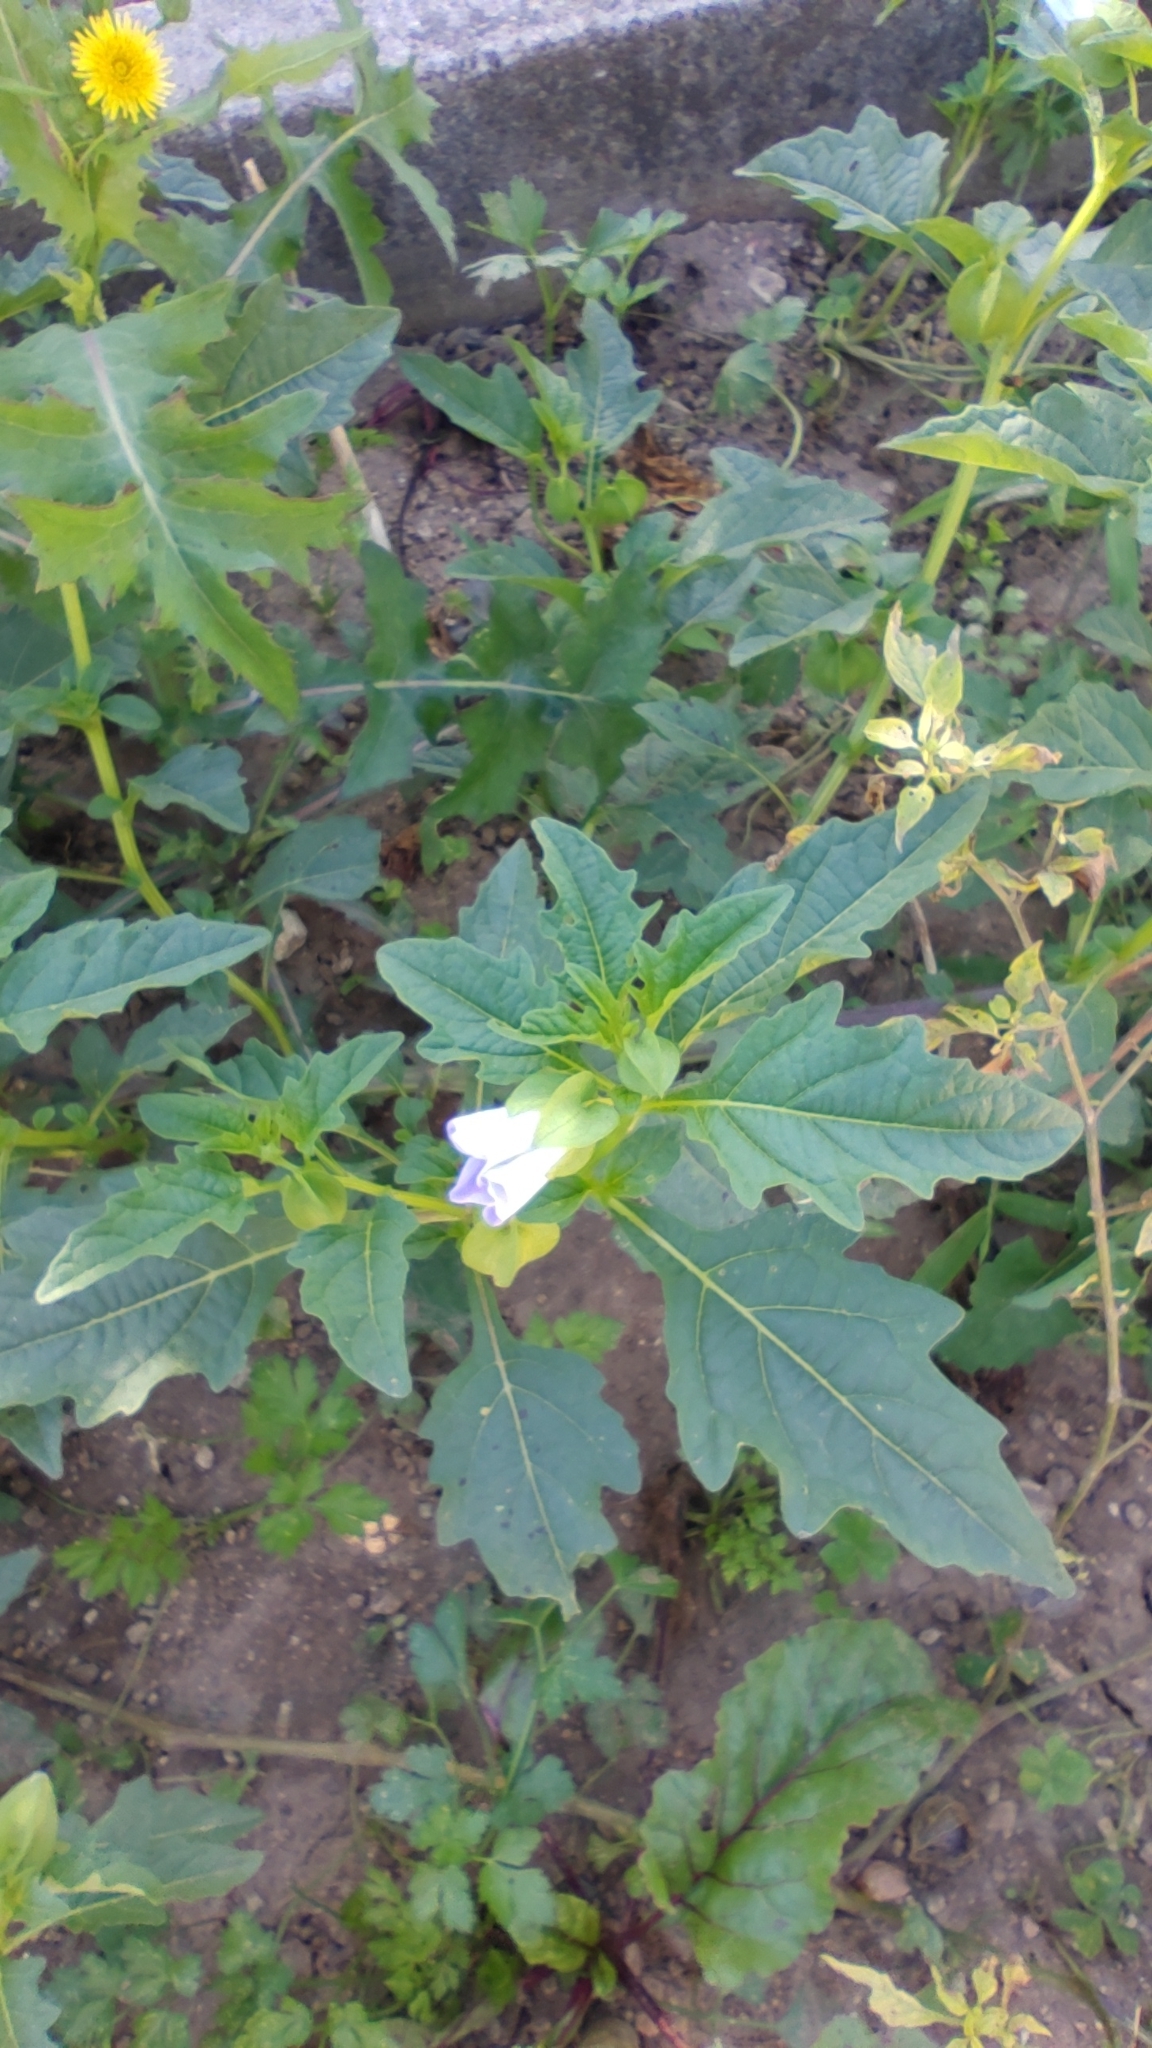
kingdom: Plantae
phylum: Tracheophyta
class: Magnoliopsida
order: Solanales
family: Solanaceae
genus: Nicandra
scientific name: Nicandra physalodes
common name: Apple-of-peru
